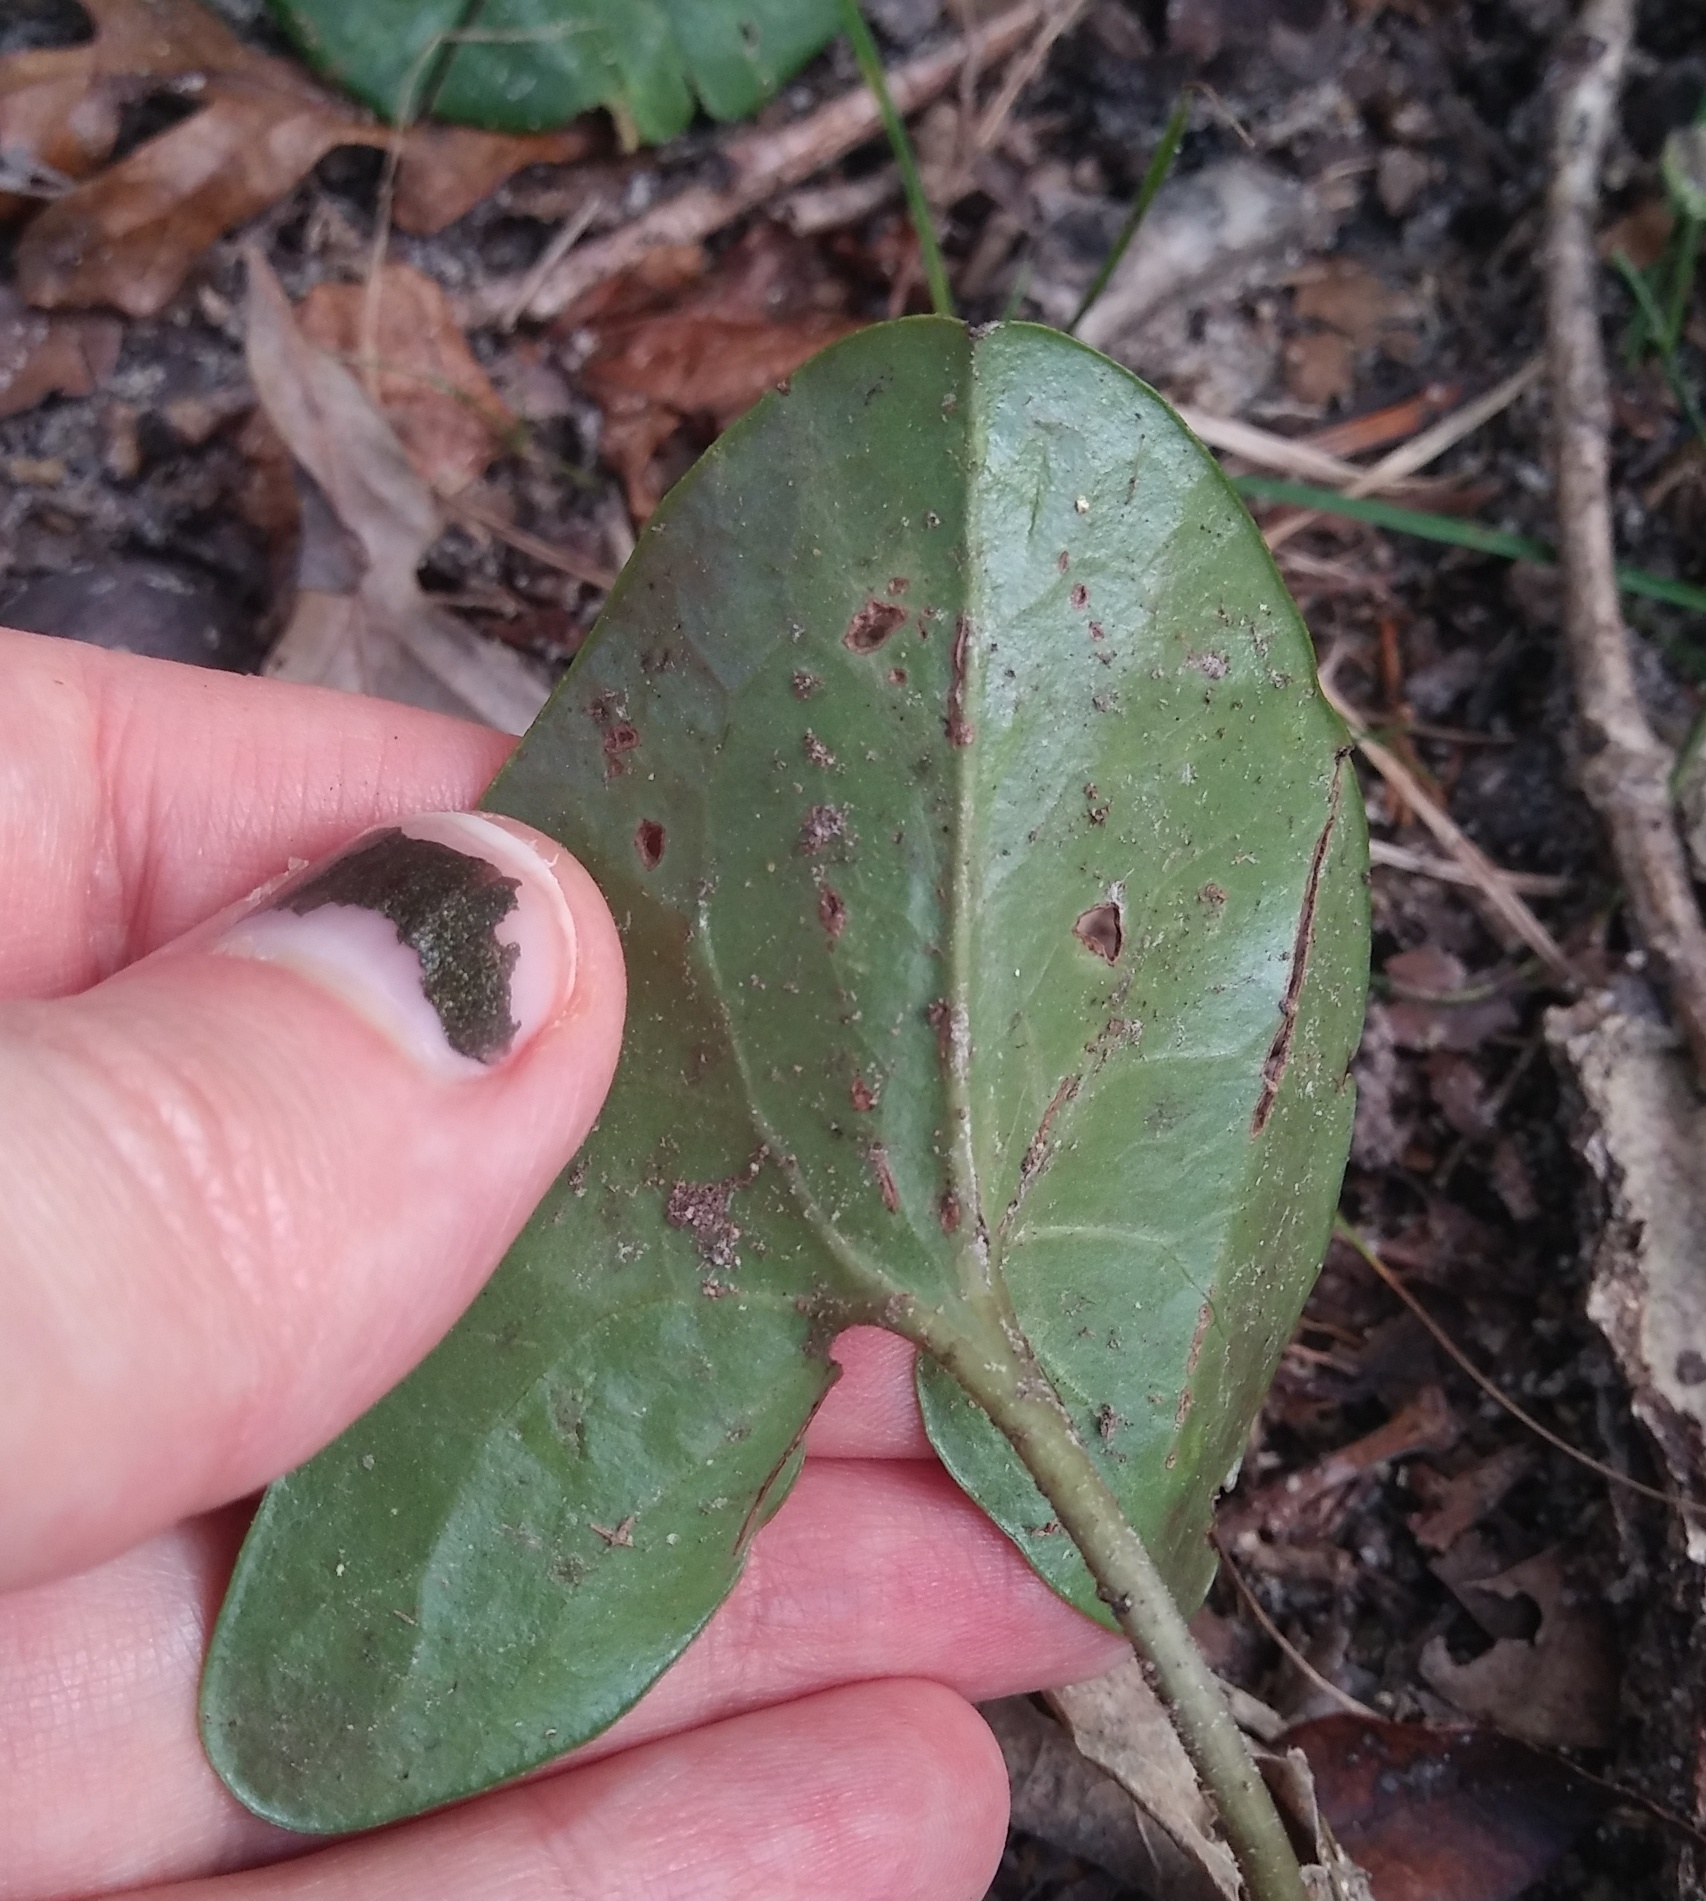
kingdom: Plantae
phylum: Tracheophyta
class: Magnoliopsida
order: Piperales
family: Aristolochiaceae
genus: Hexastylis
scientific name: Hexastylis arifolia
